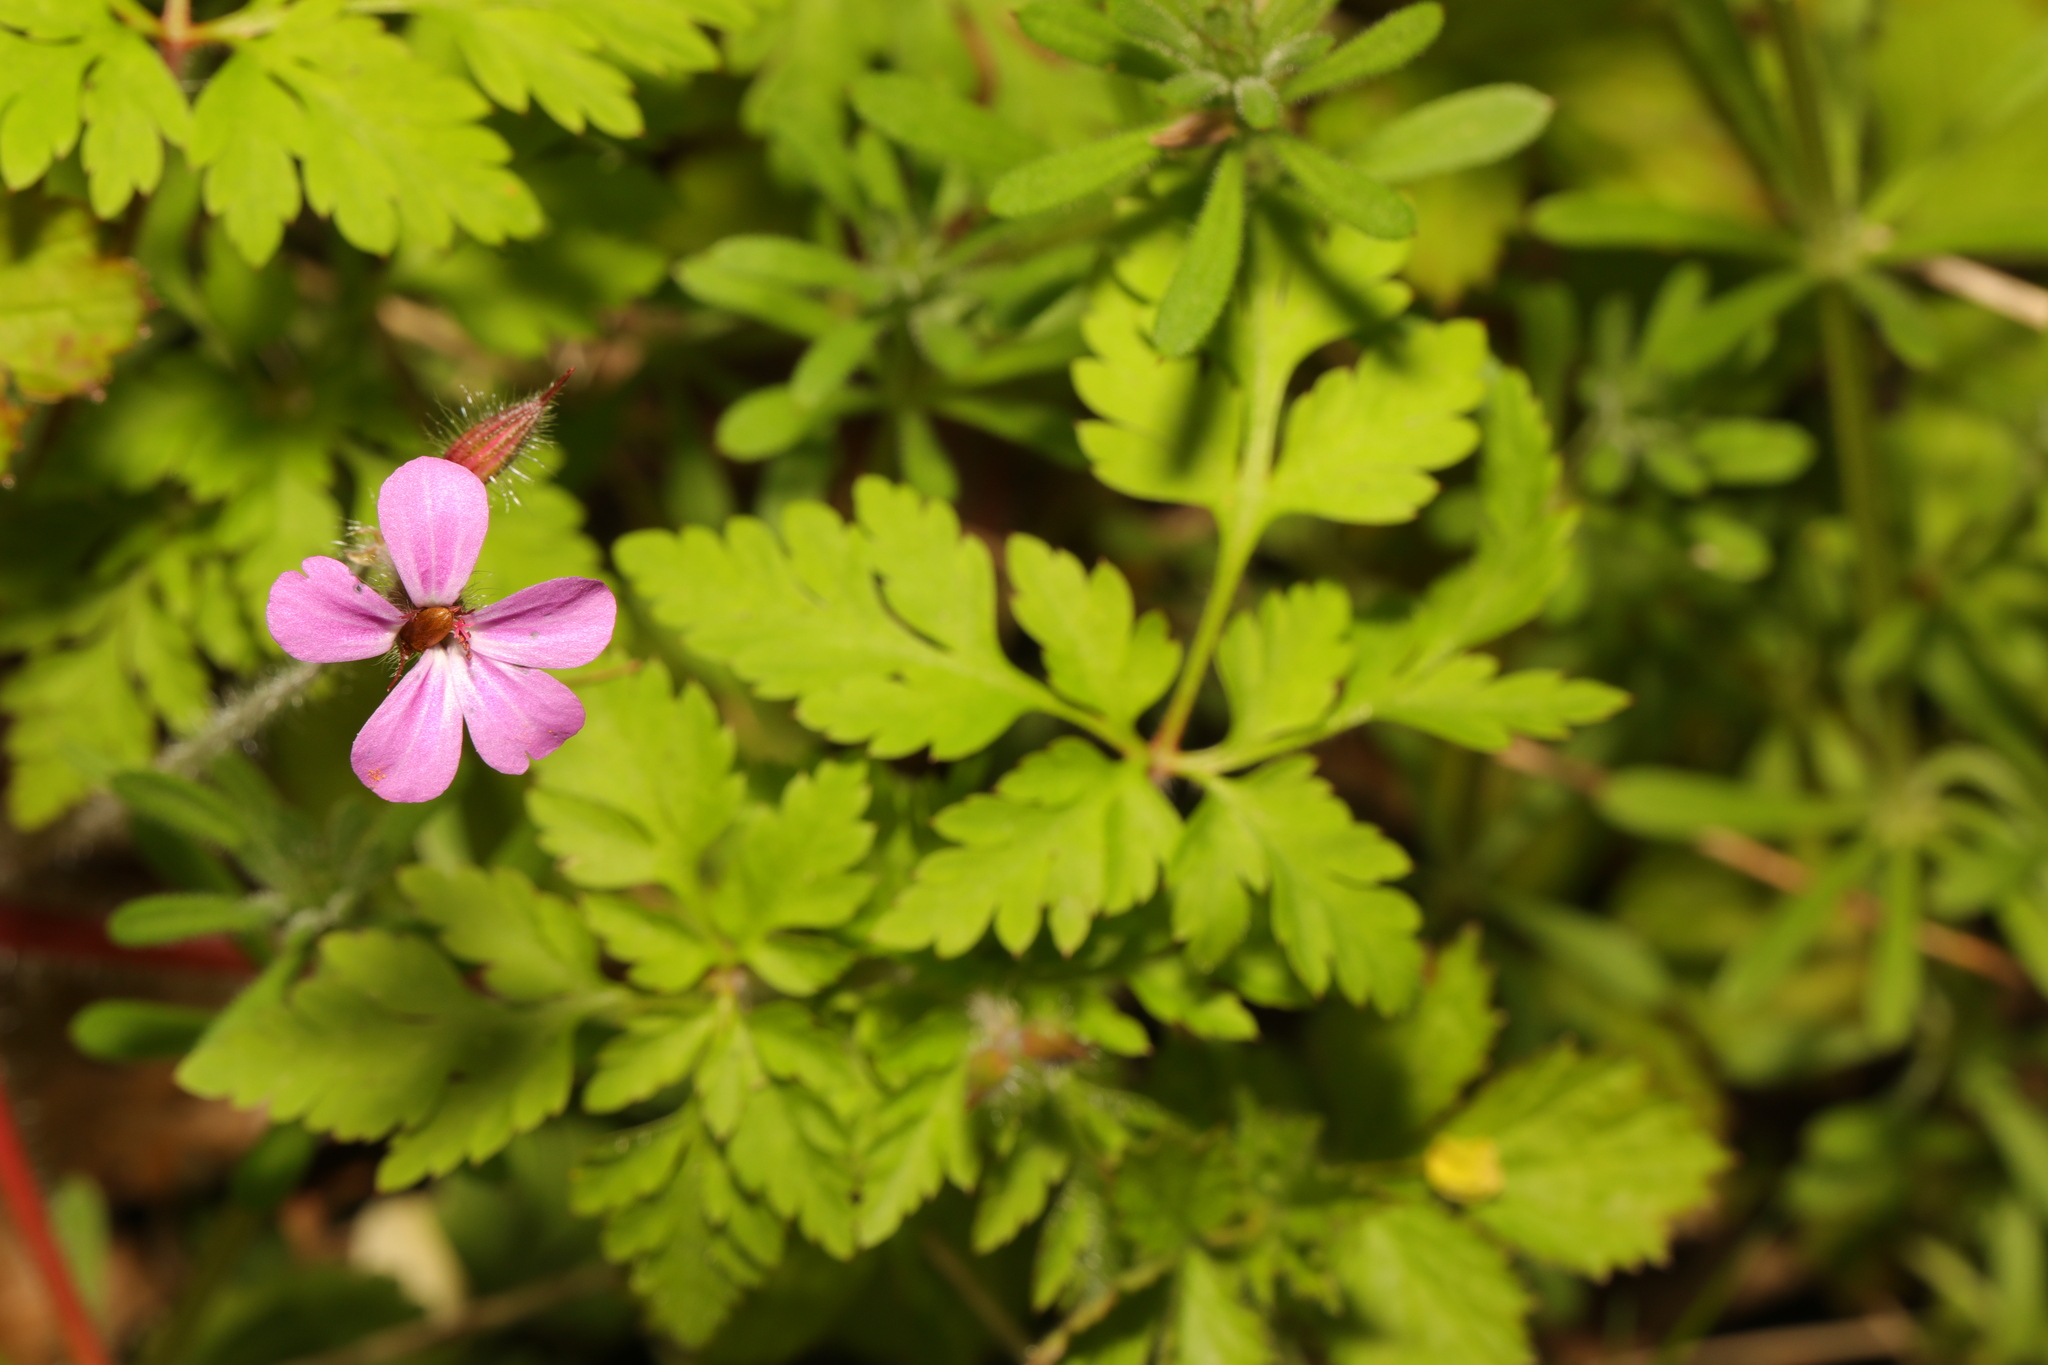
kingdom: Plantae
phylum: Tracheophyta
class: Magnoliopsida
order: Geraniales
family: Geraniaceae
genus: Geranium
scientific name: Geranium robertianum
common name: Herb-robert
